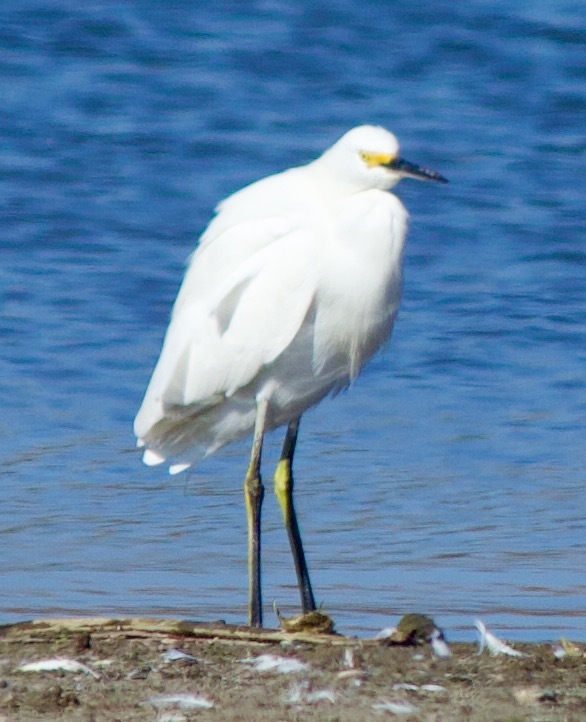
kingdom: Animalia
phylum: Chordata
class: Aves
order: Pelecaniformes
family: Ardeidae
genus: Egretta
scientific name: Egretta thula
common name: Snowy egret
